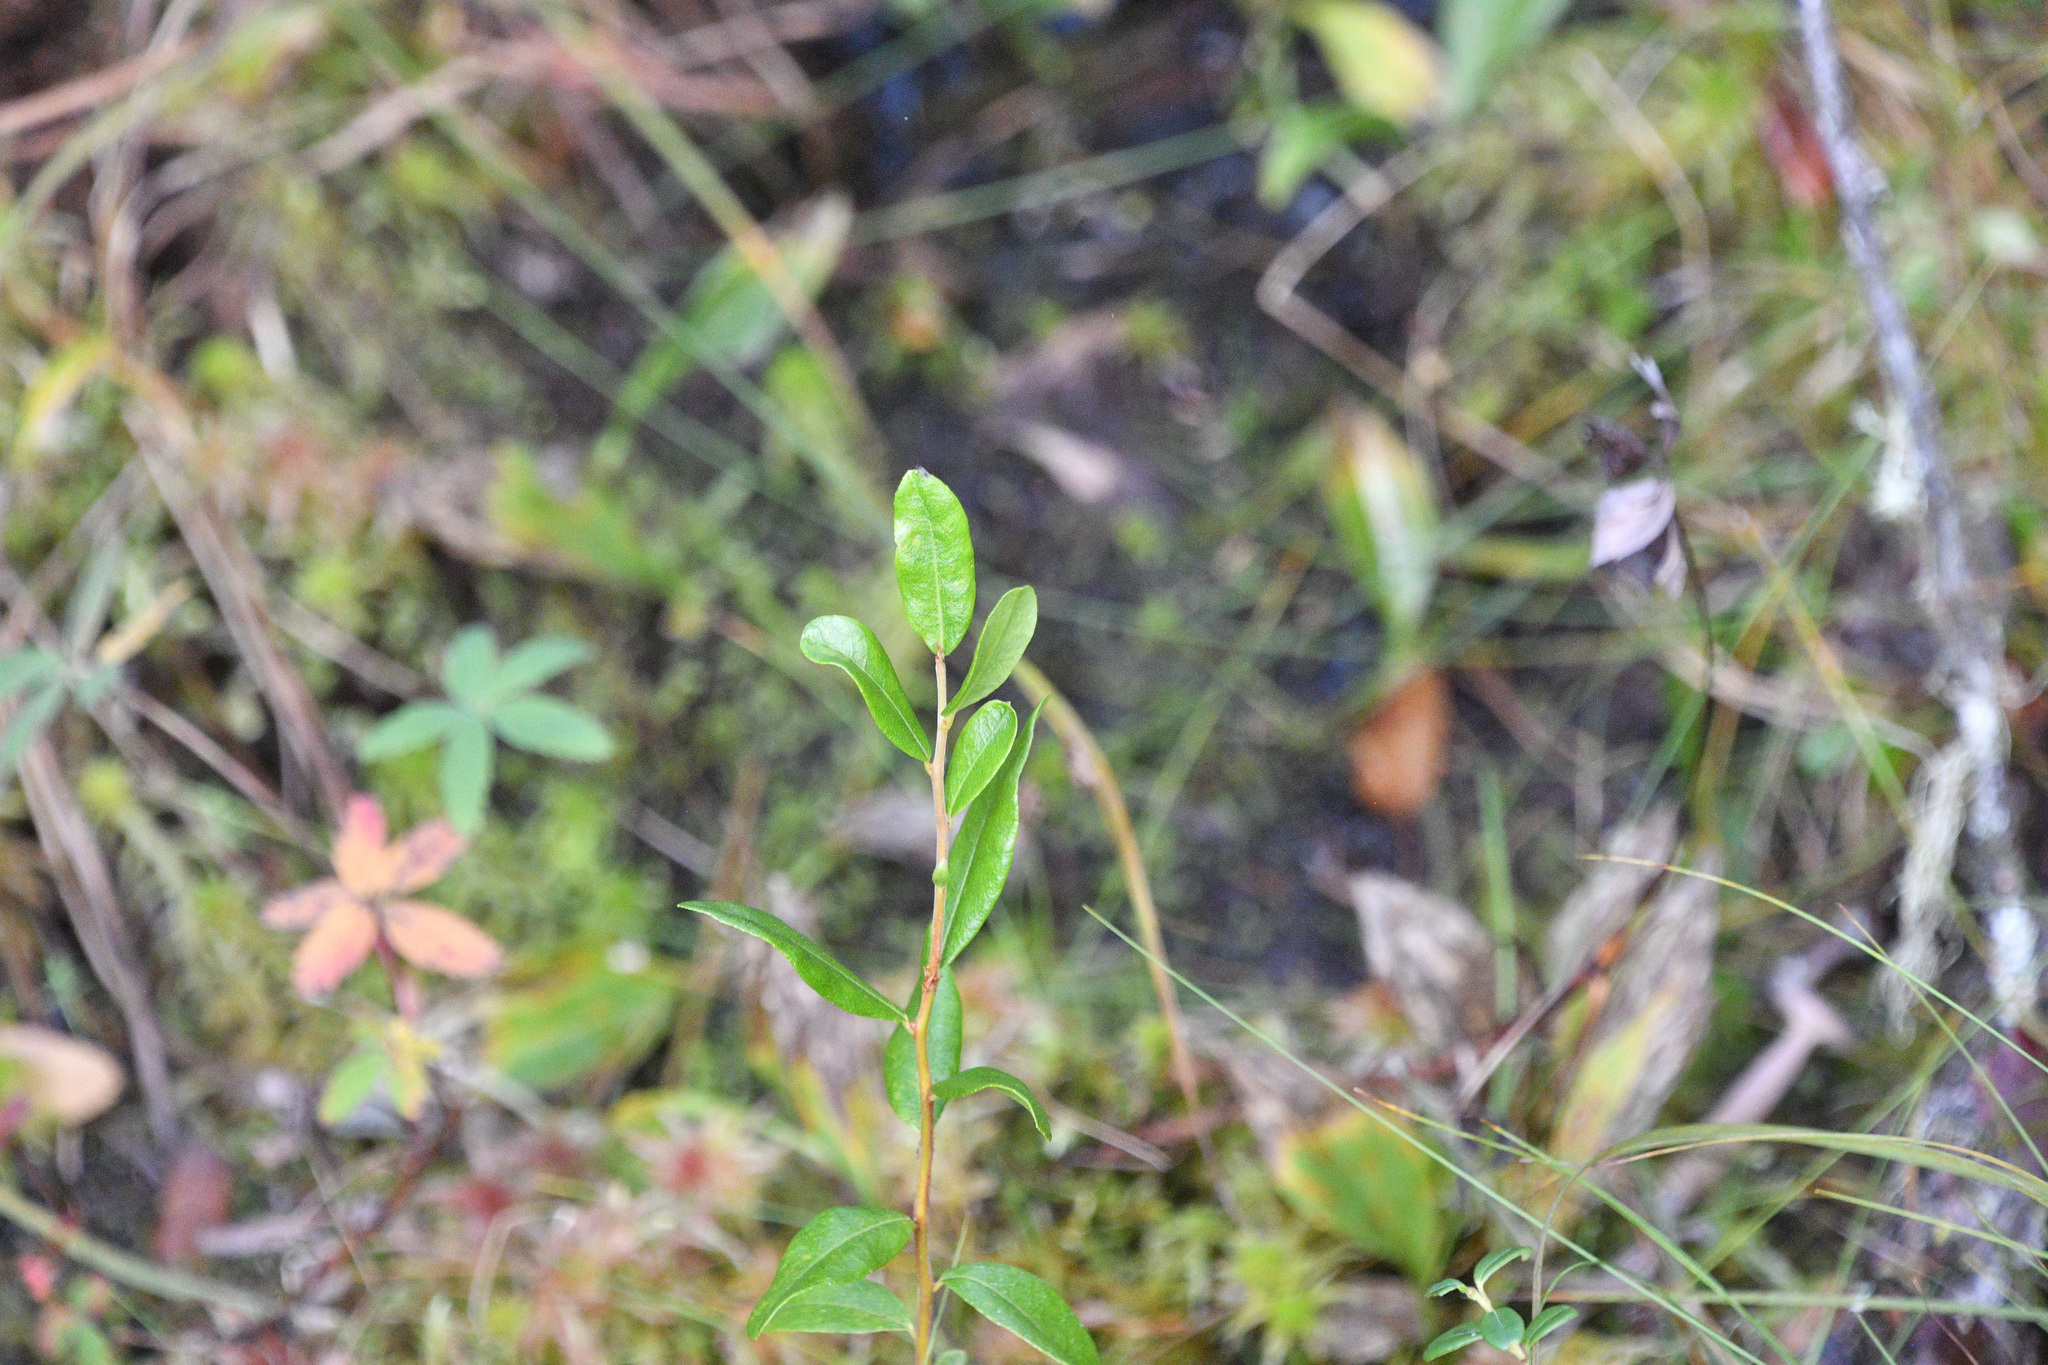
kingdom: Plantae
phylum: Tracheophyta
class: Magnoliopsida
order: Ericales
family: Ericaceae
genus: Chamaedaphne
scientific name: Chamaedaphne calyculata
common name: Leatherleaf
